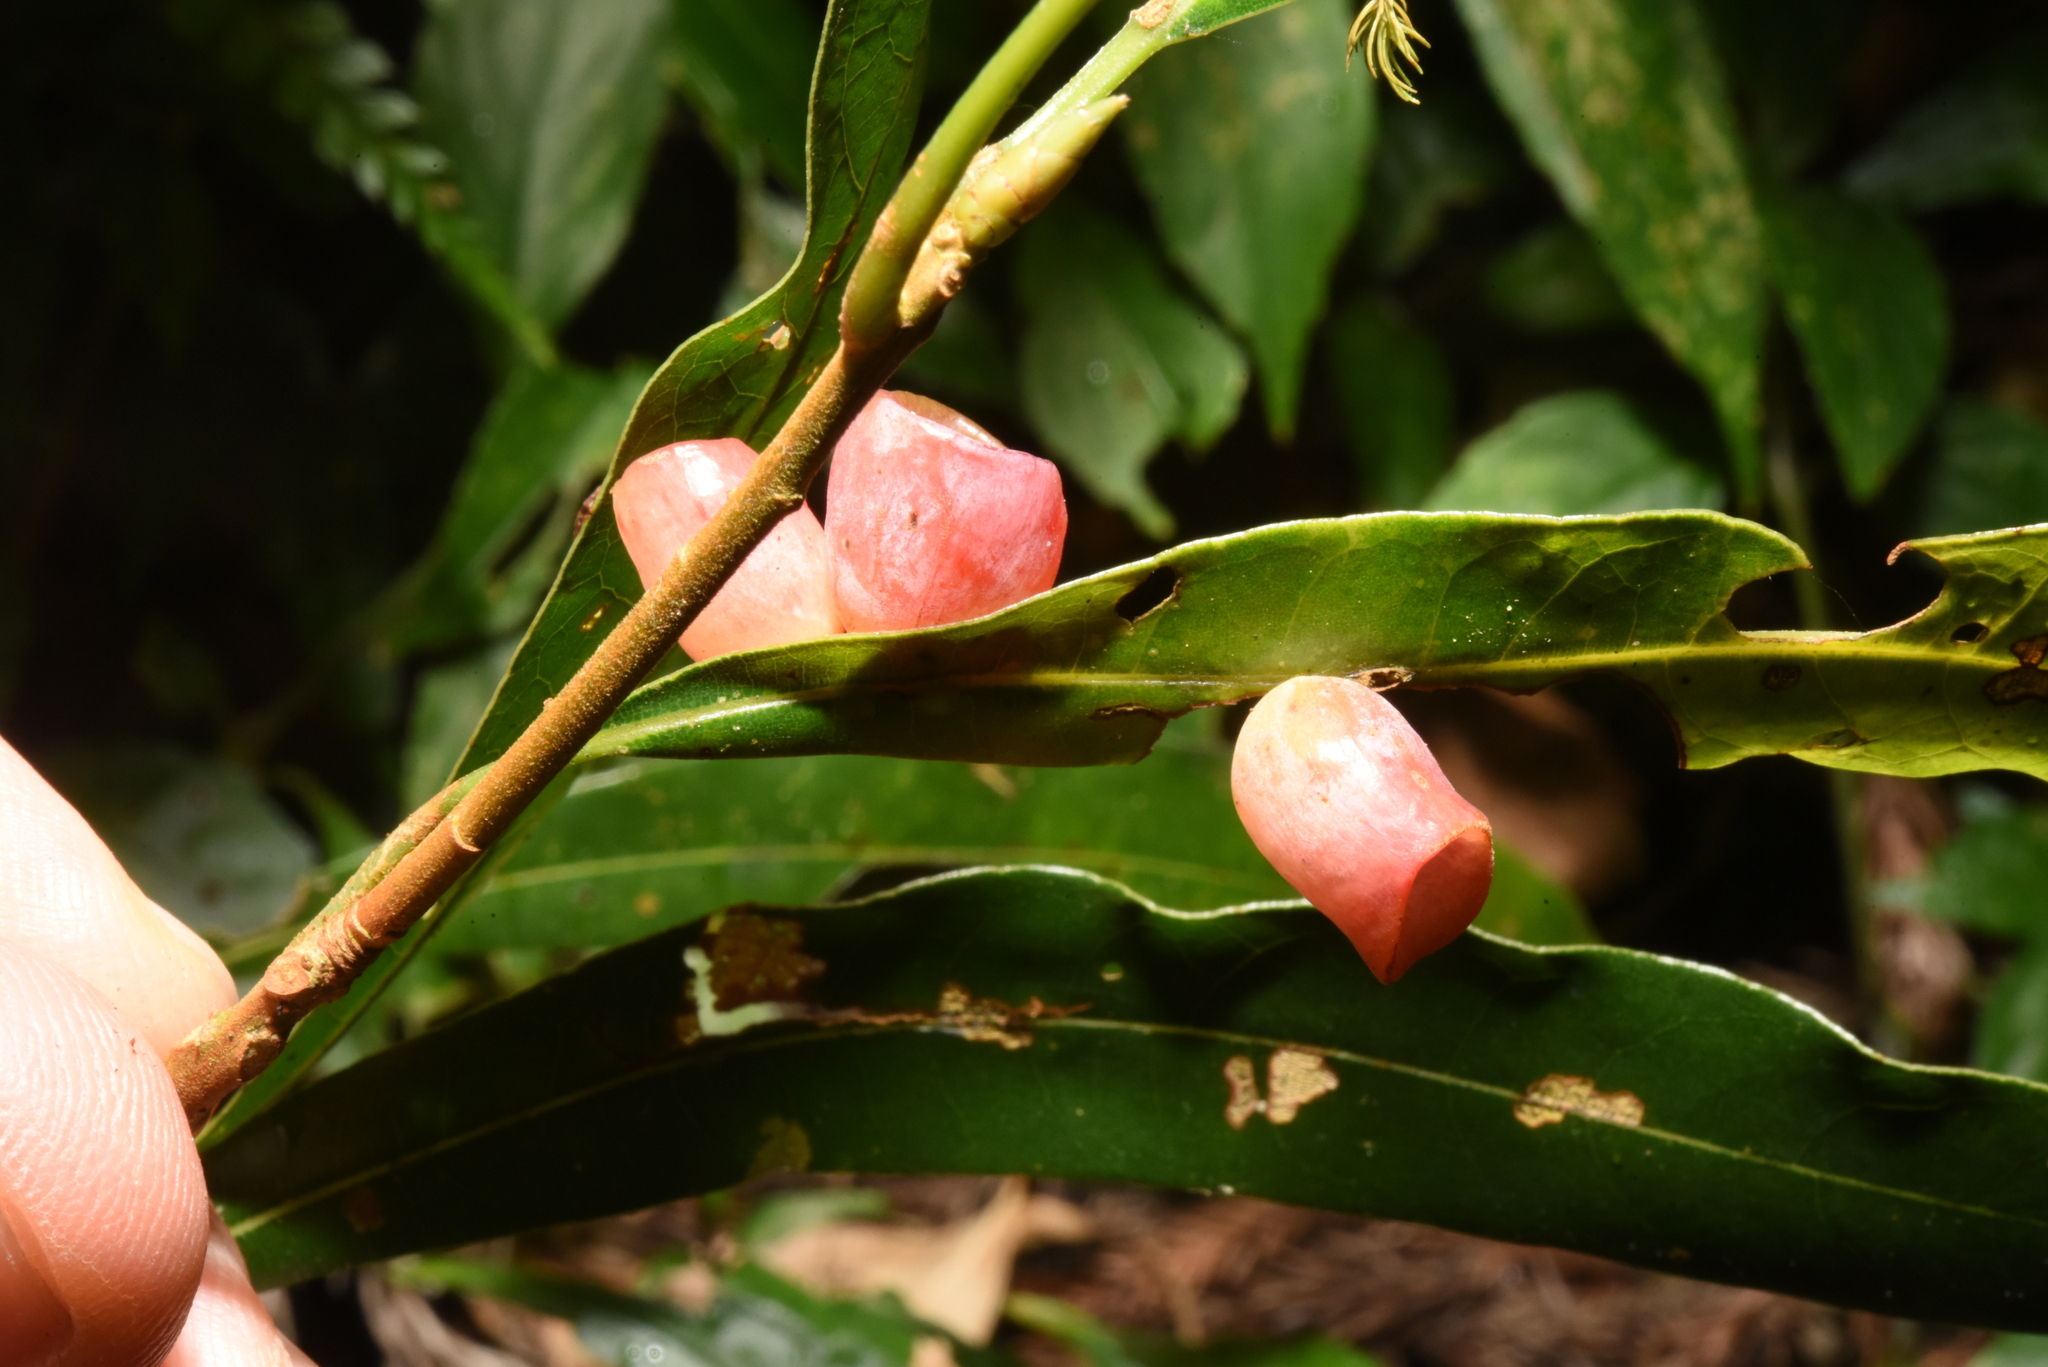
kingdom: Animalia
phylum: Arthropoda
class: Insecta
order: Diptera
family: Cecidomyiidae
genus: Odontokeros
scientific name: Odontokeros litseae
